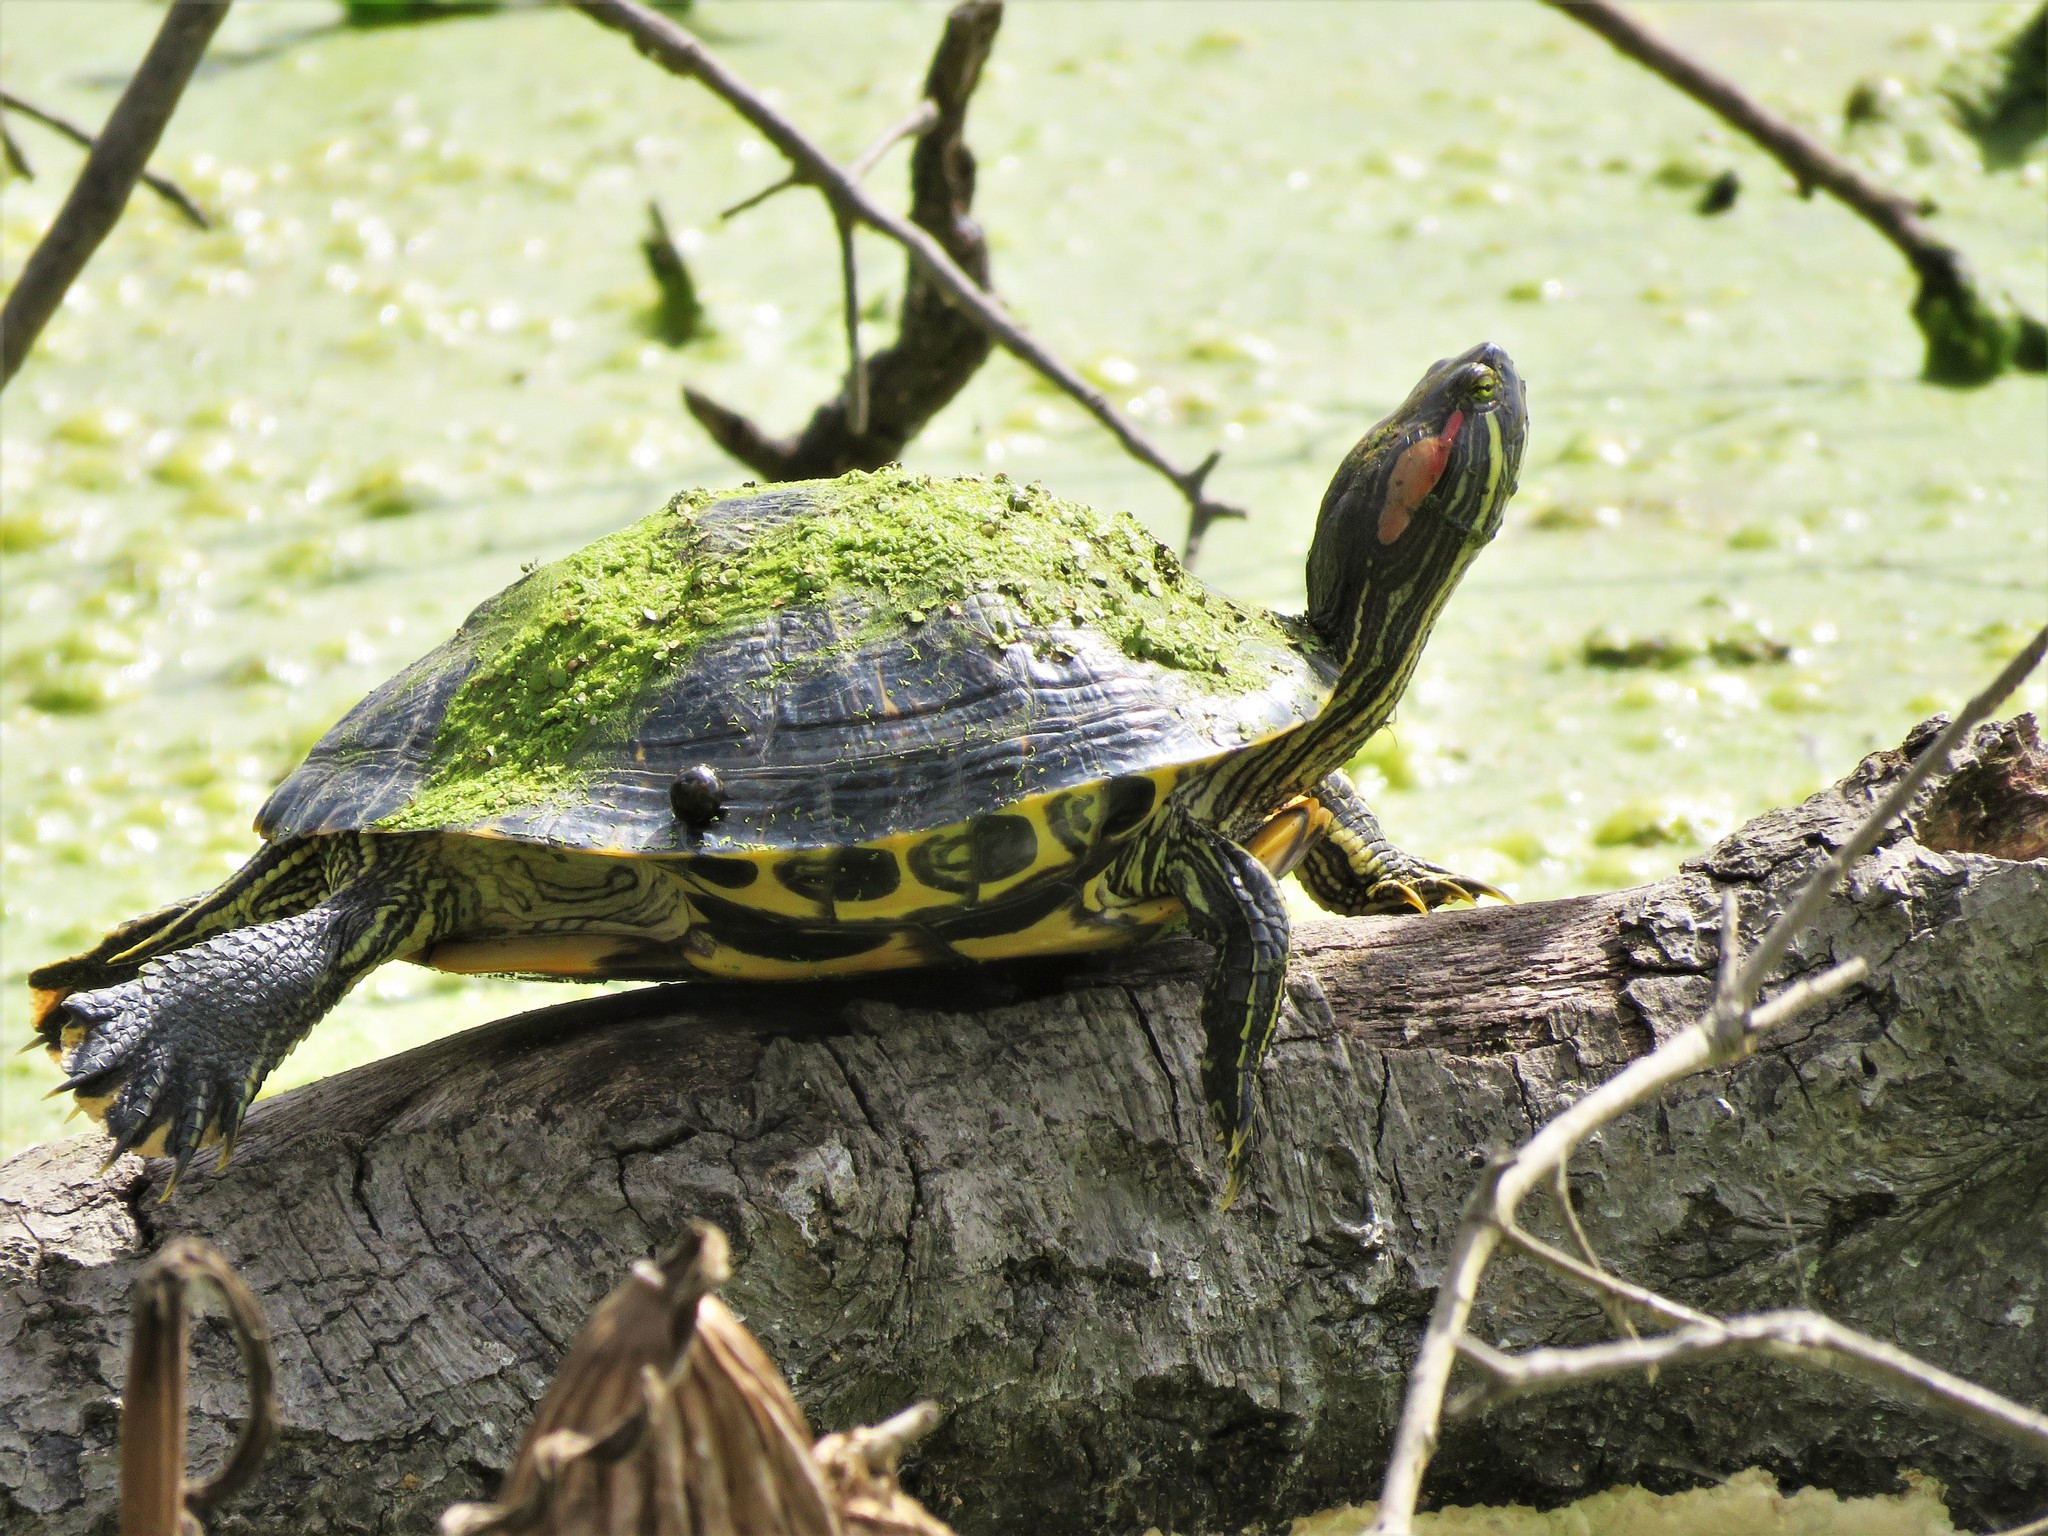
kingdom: Animalia
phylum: Chordata
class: Testudines
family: Emydidae
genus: Trachemys
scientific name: Trachemys scripta
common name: Slider
